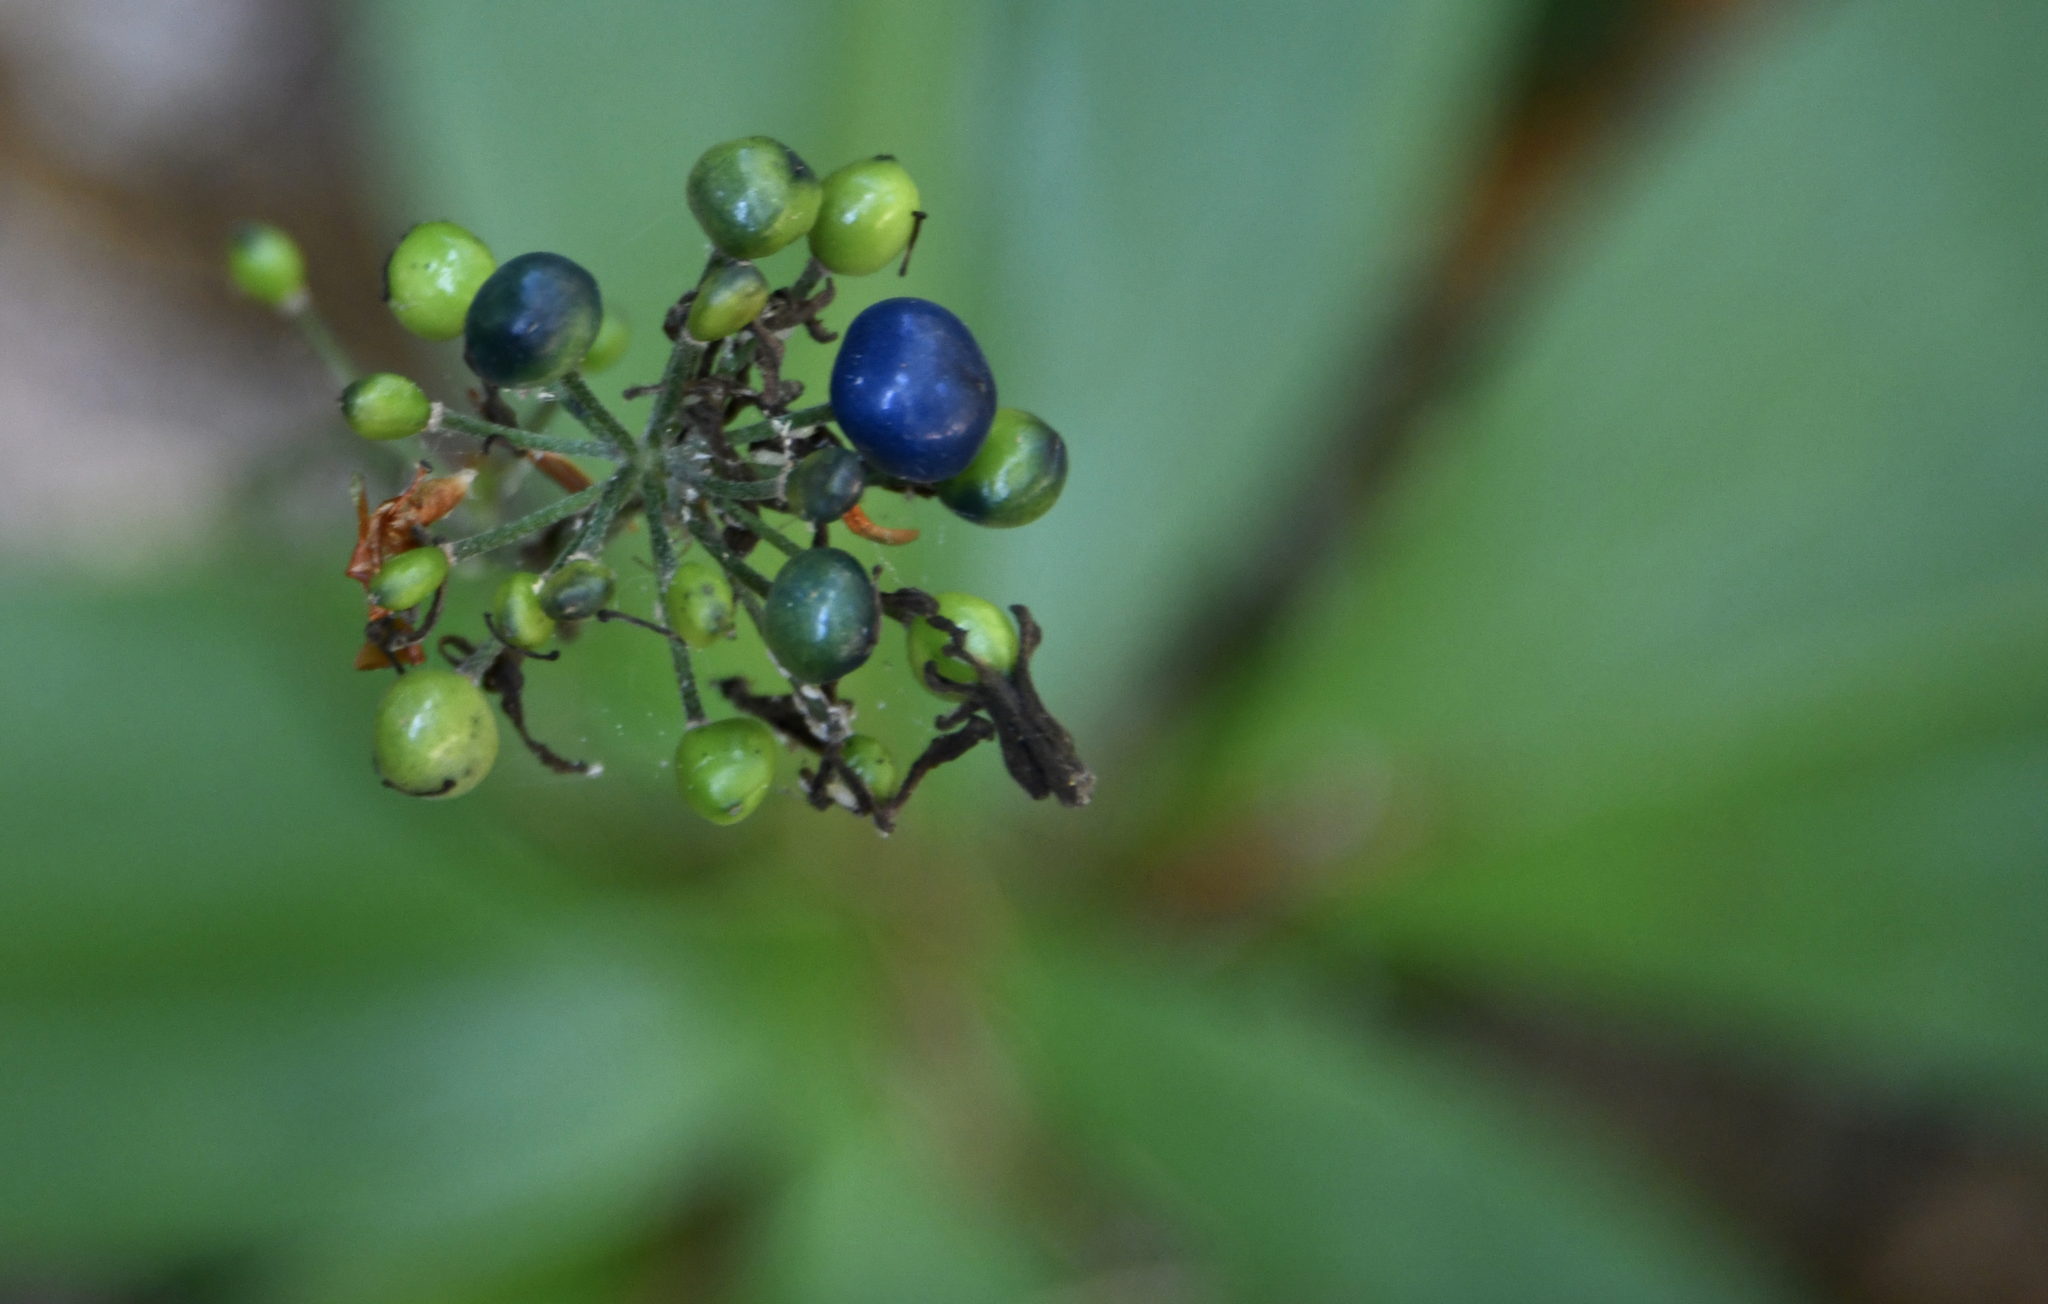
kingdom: Plantae
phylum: Tracheophyta
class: Liliopsida
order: Liliales
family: Liliaceae
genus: Clintonia
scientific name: Clintonia andrewsiana
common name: Red clintonia
